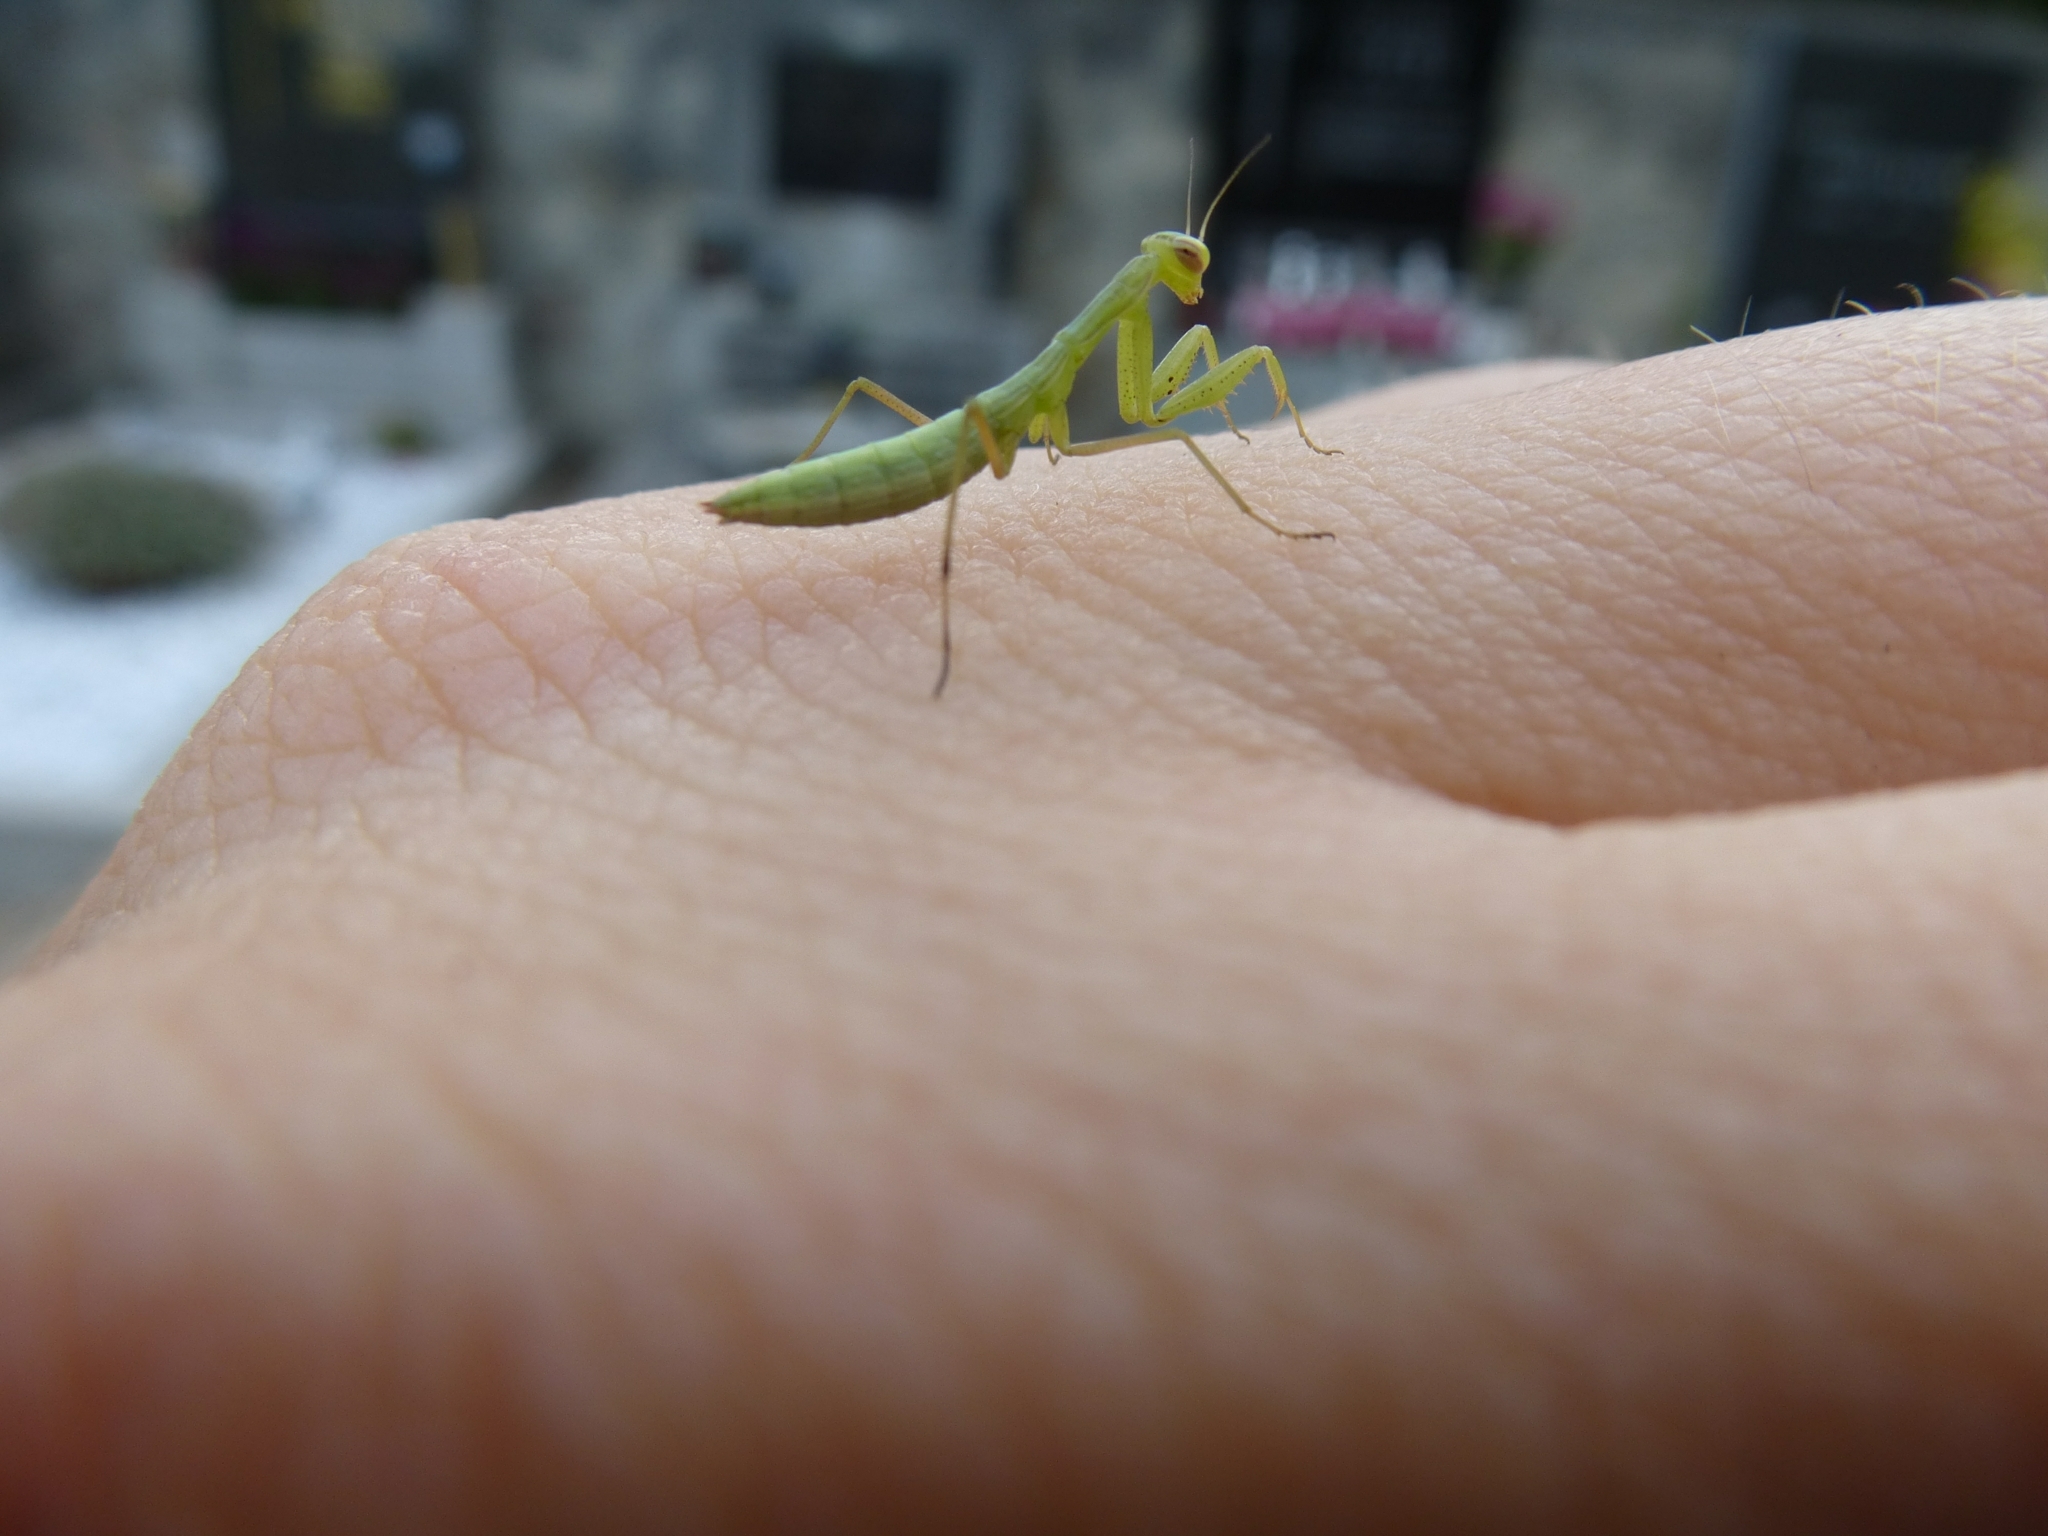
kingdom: Animalia
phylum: Arthropoda
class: Insecta
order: Mantodea
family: Mantidae
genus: Mantis
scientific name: Mantis religiosa
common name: Praying mantis
